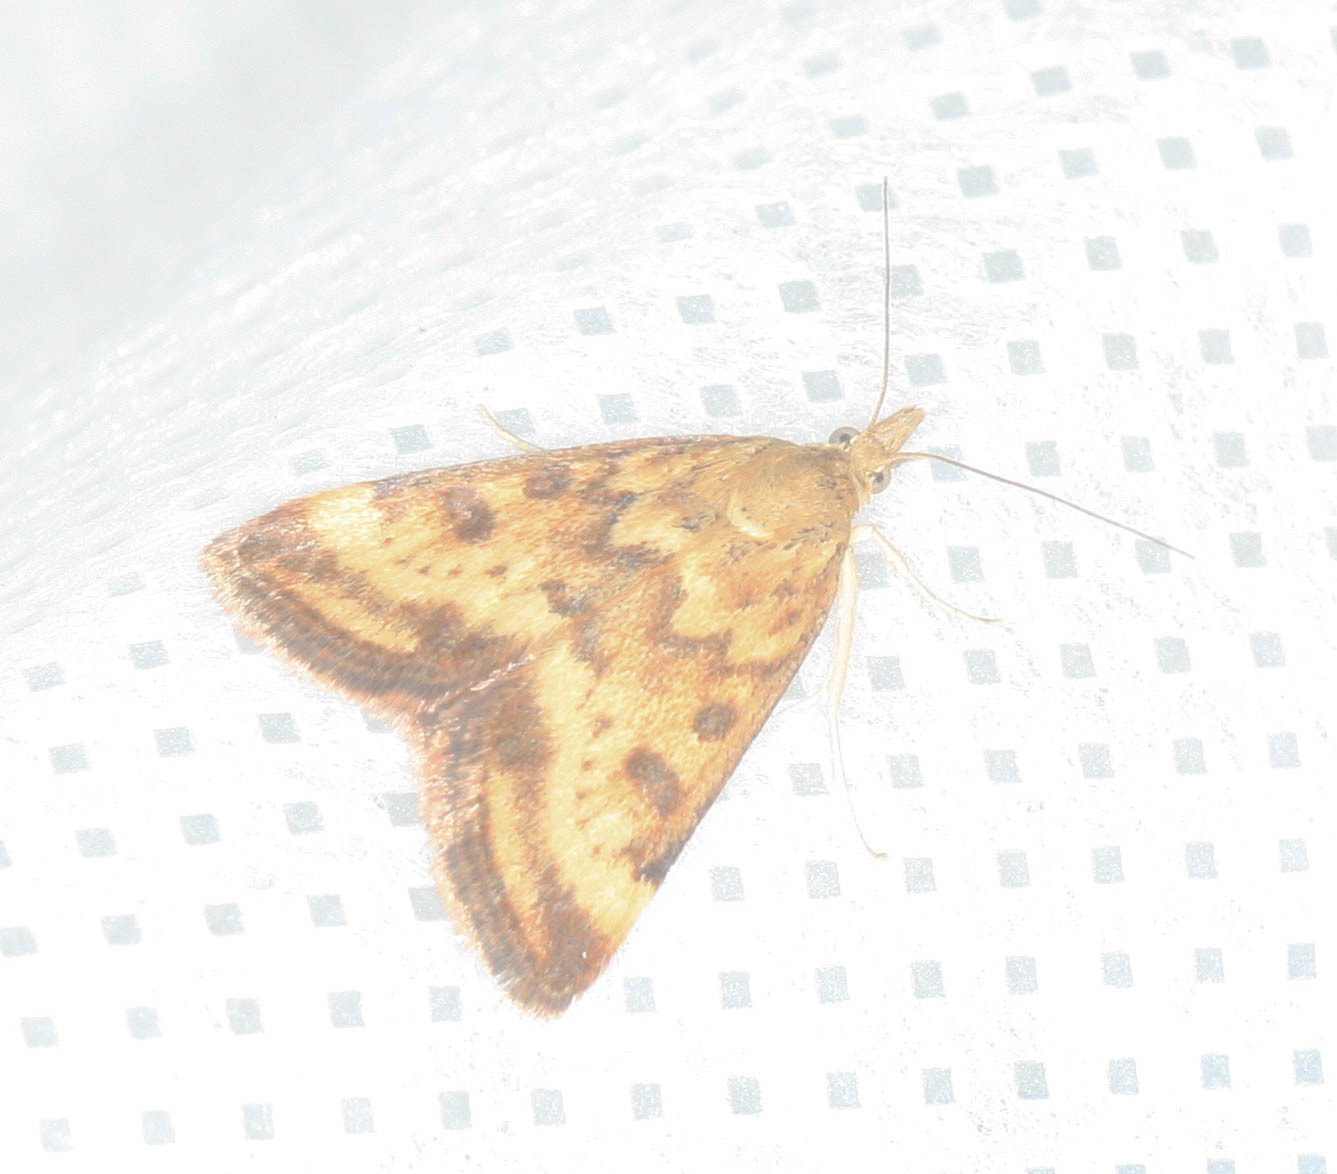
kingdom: Animalia
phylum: Arthropoda
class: Insecta
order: Lepidoptera
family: Crambidae
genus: Pyrausta
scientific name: Pyrausta subsequalis
